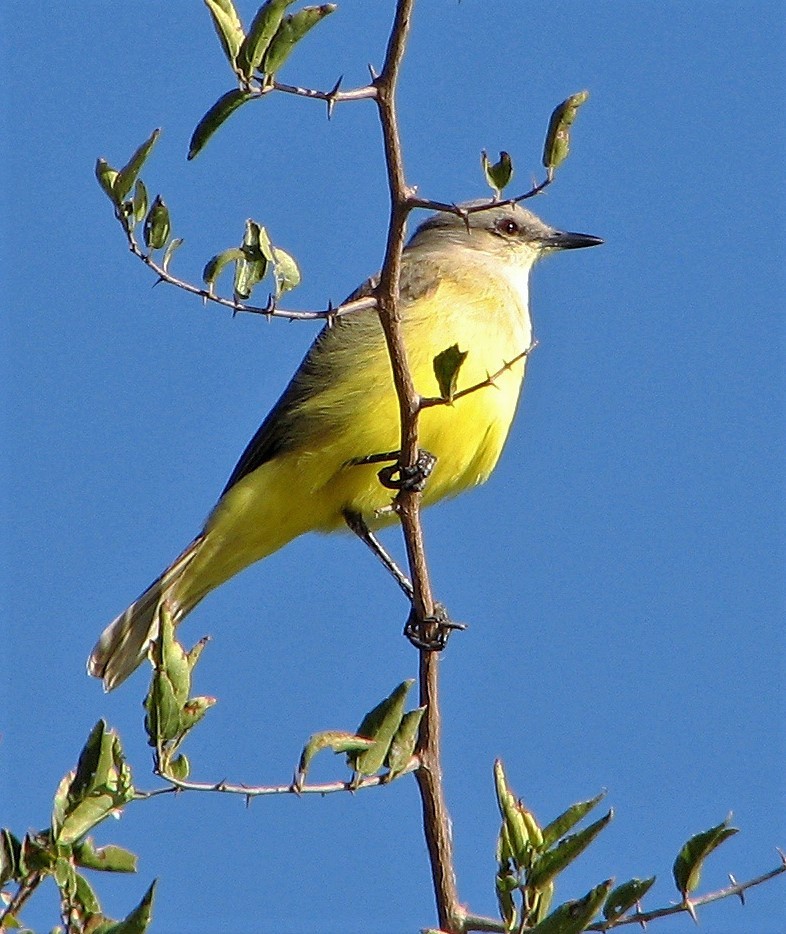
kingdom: Animalia
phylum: Chordata
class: Aves
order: Passeriformes
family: Tyrannidae
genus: Machetornis
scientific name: Machetornis rixosa
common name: Cattle tyrant
